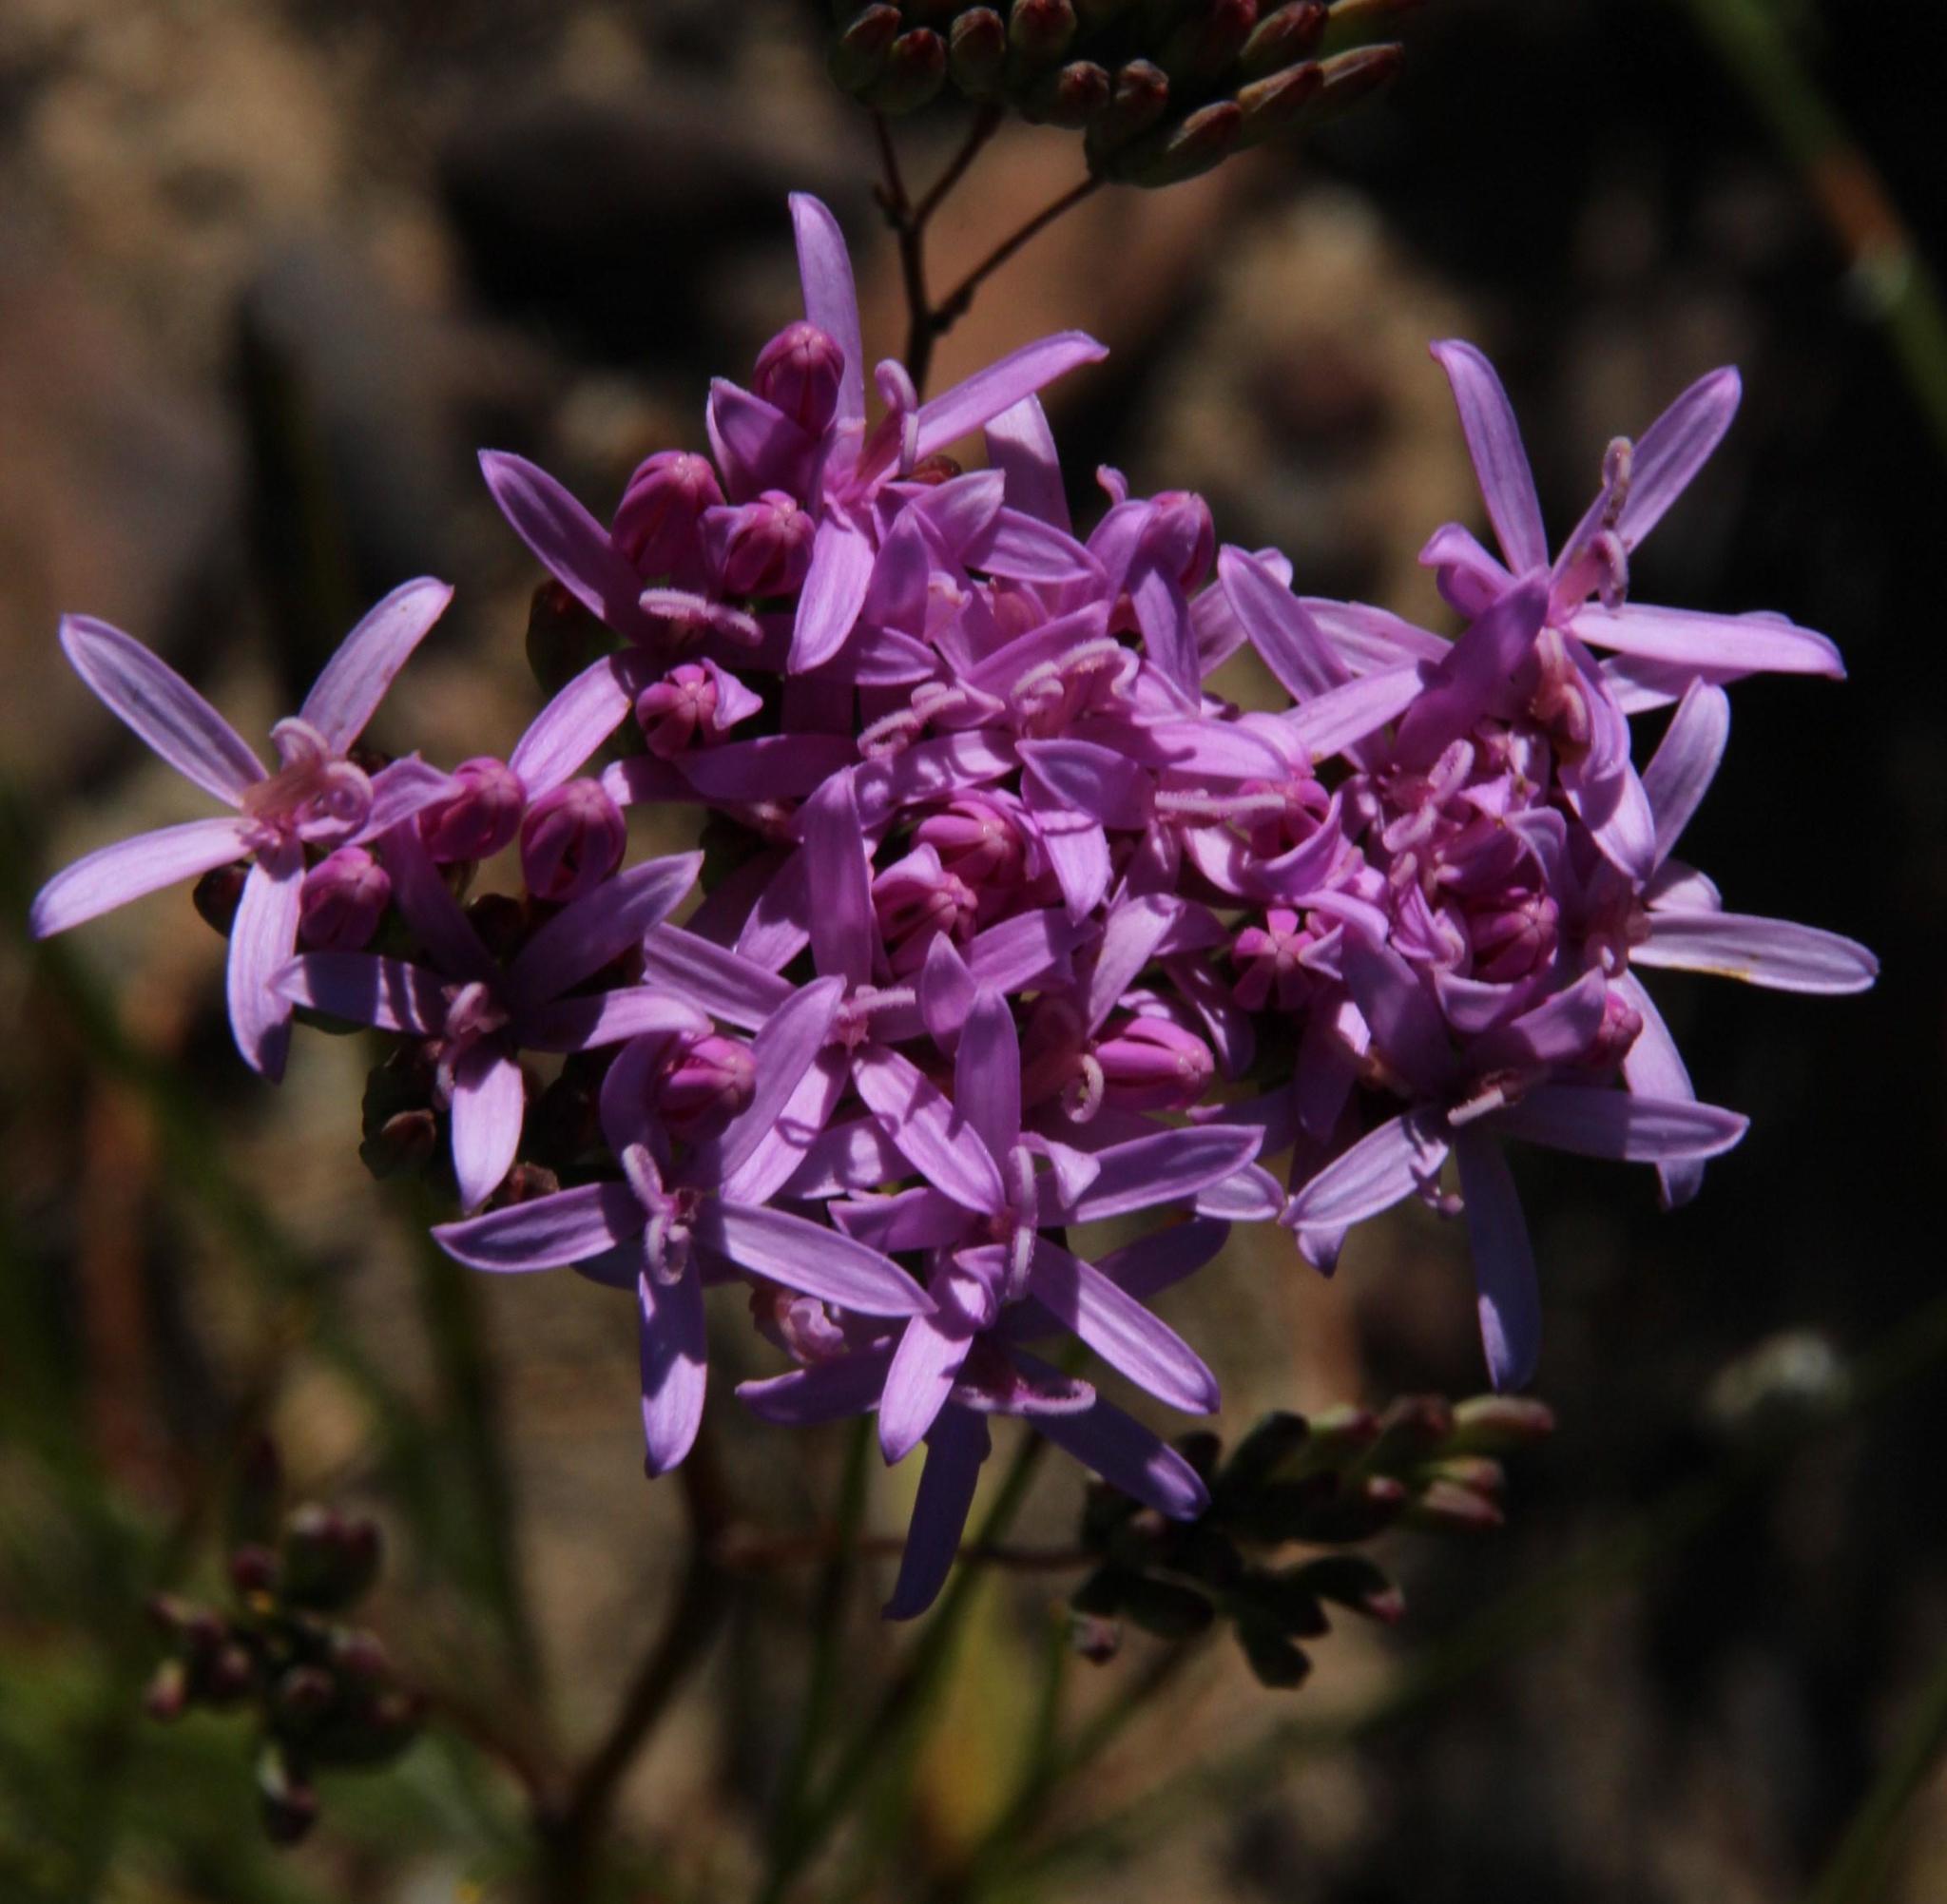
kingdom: Plantae
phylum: Tracheophyta
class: Magnoliopsida
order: Asterales
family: Asteraceae
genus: Corymbium
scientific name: Corymbium glabrum
